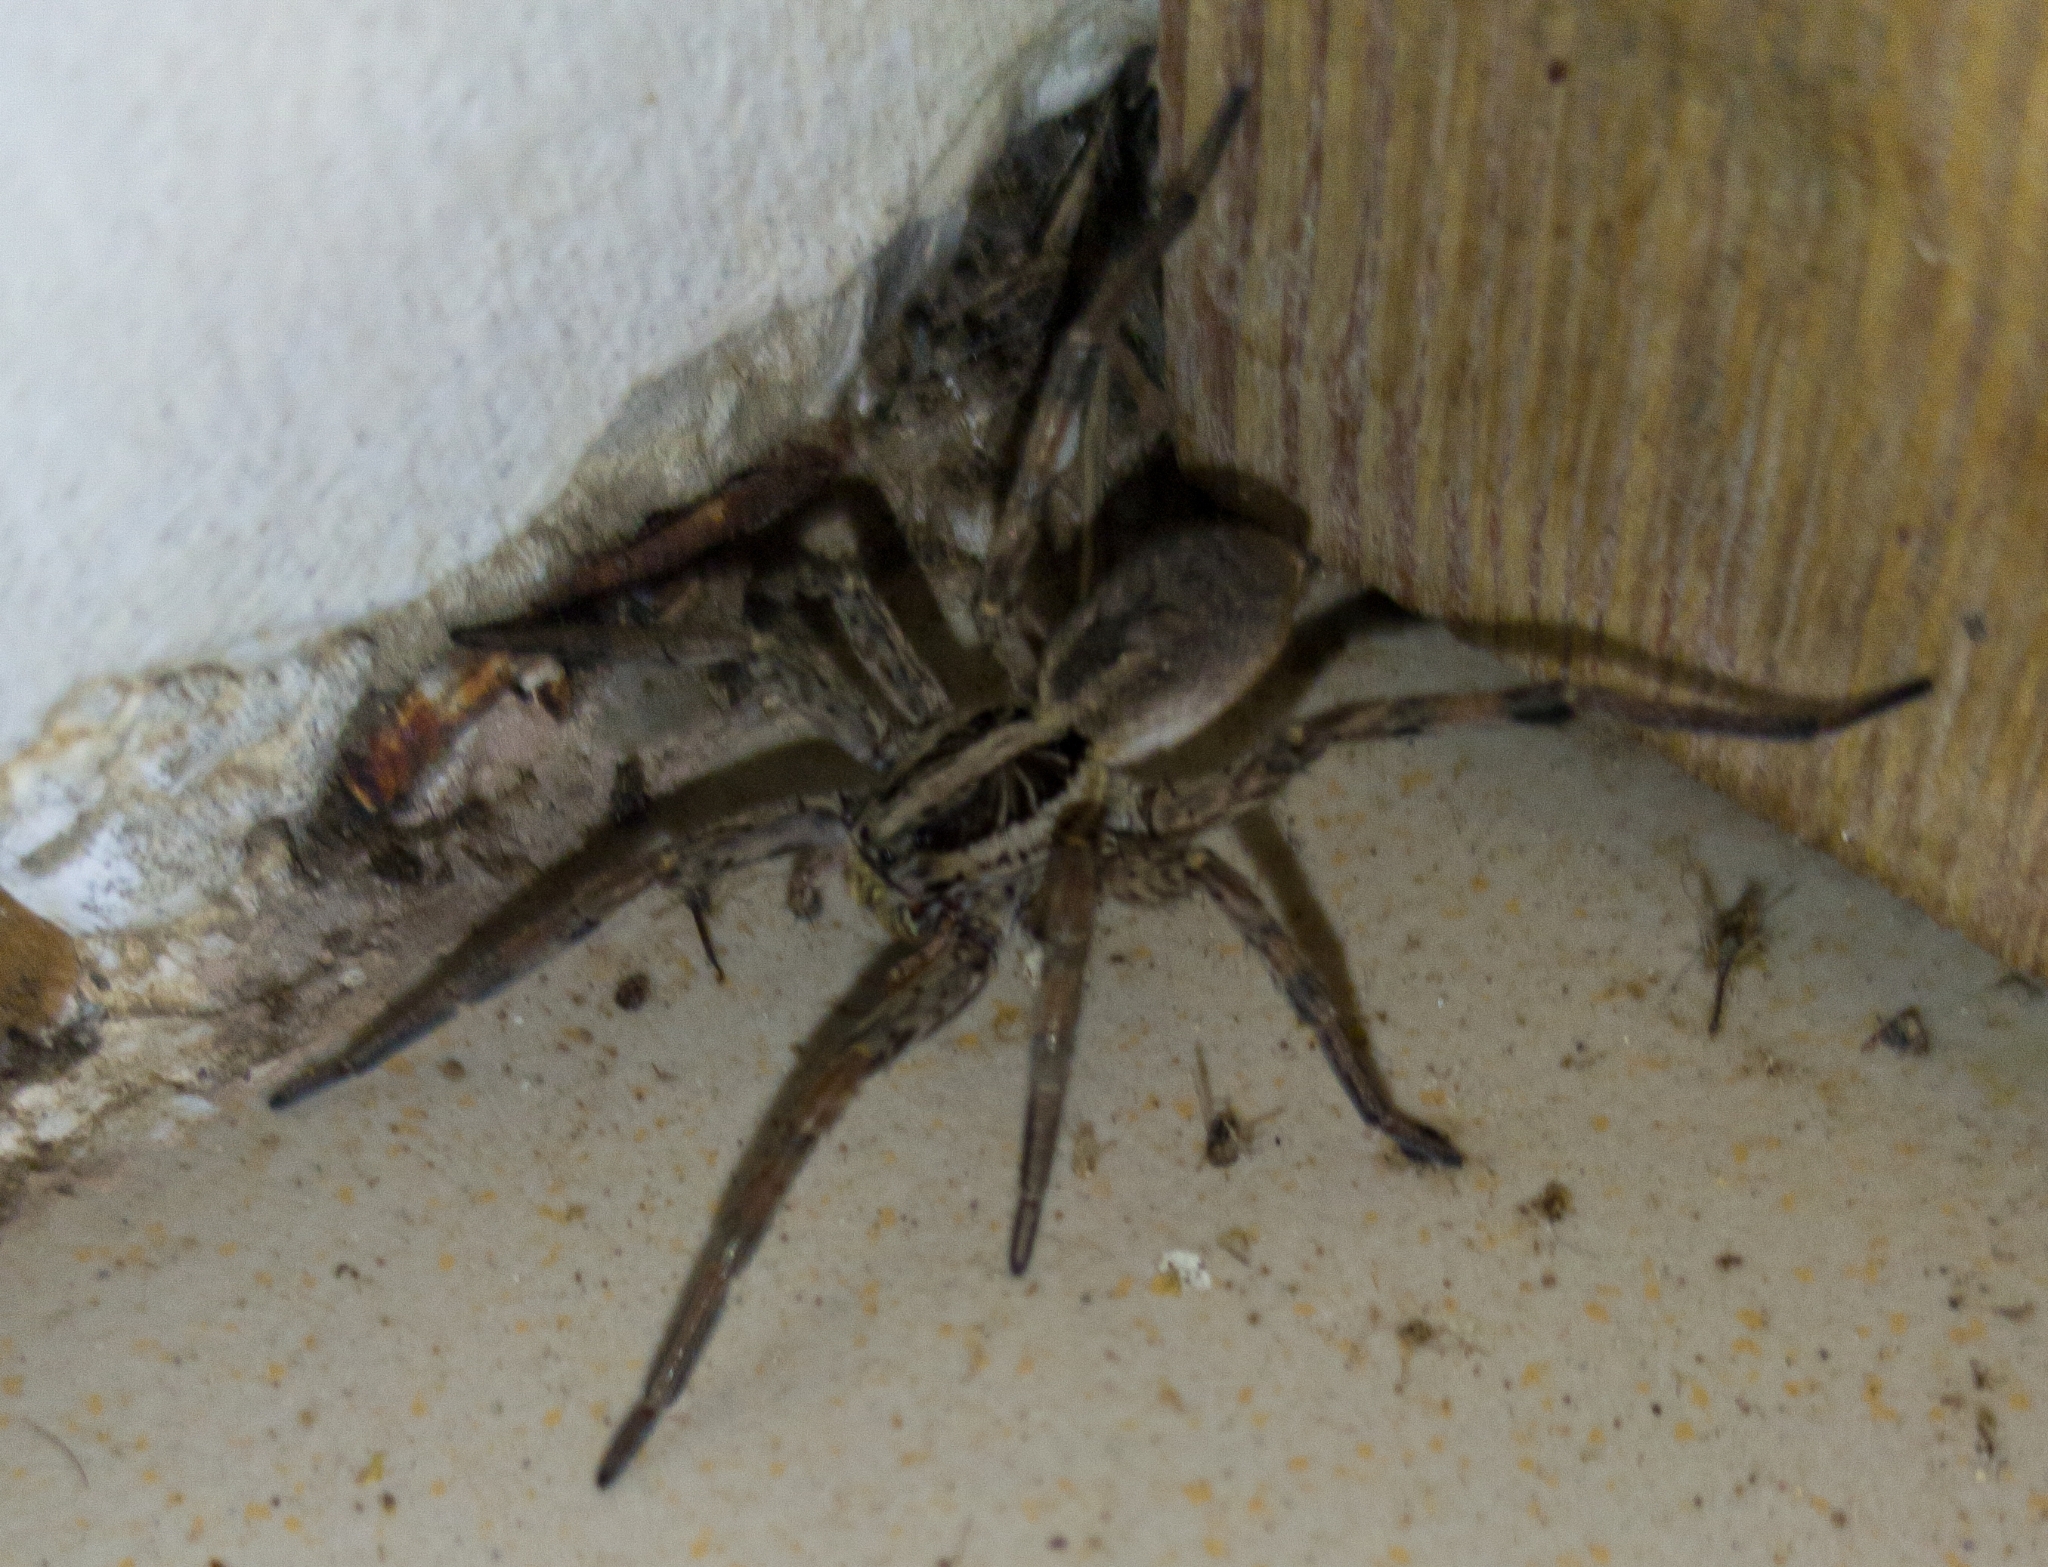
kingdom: Animalia
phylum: Arthropoda
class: Arachnida
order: Araneae
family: Lycosidae
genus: Hogna
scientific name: Hogna radiata
